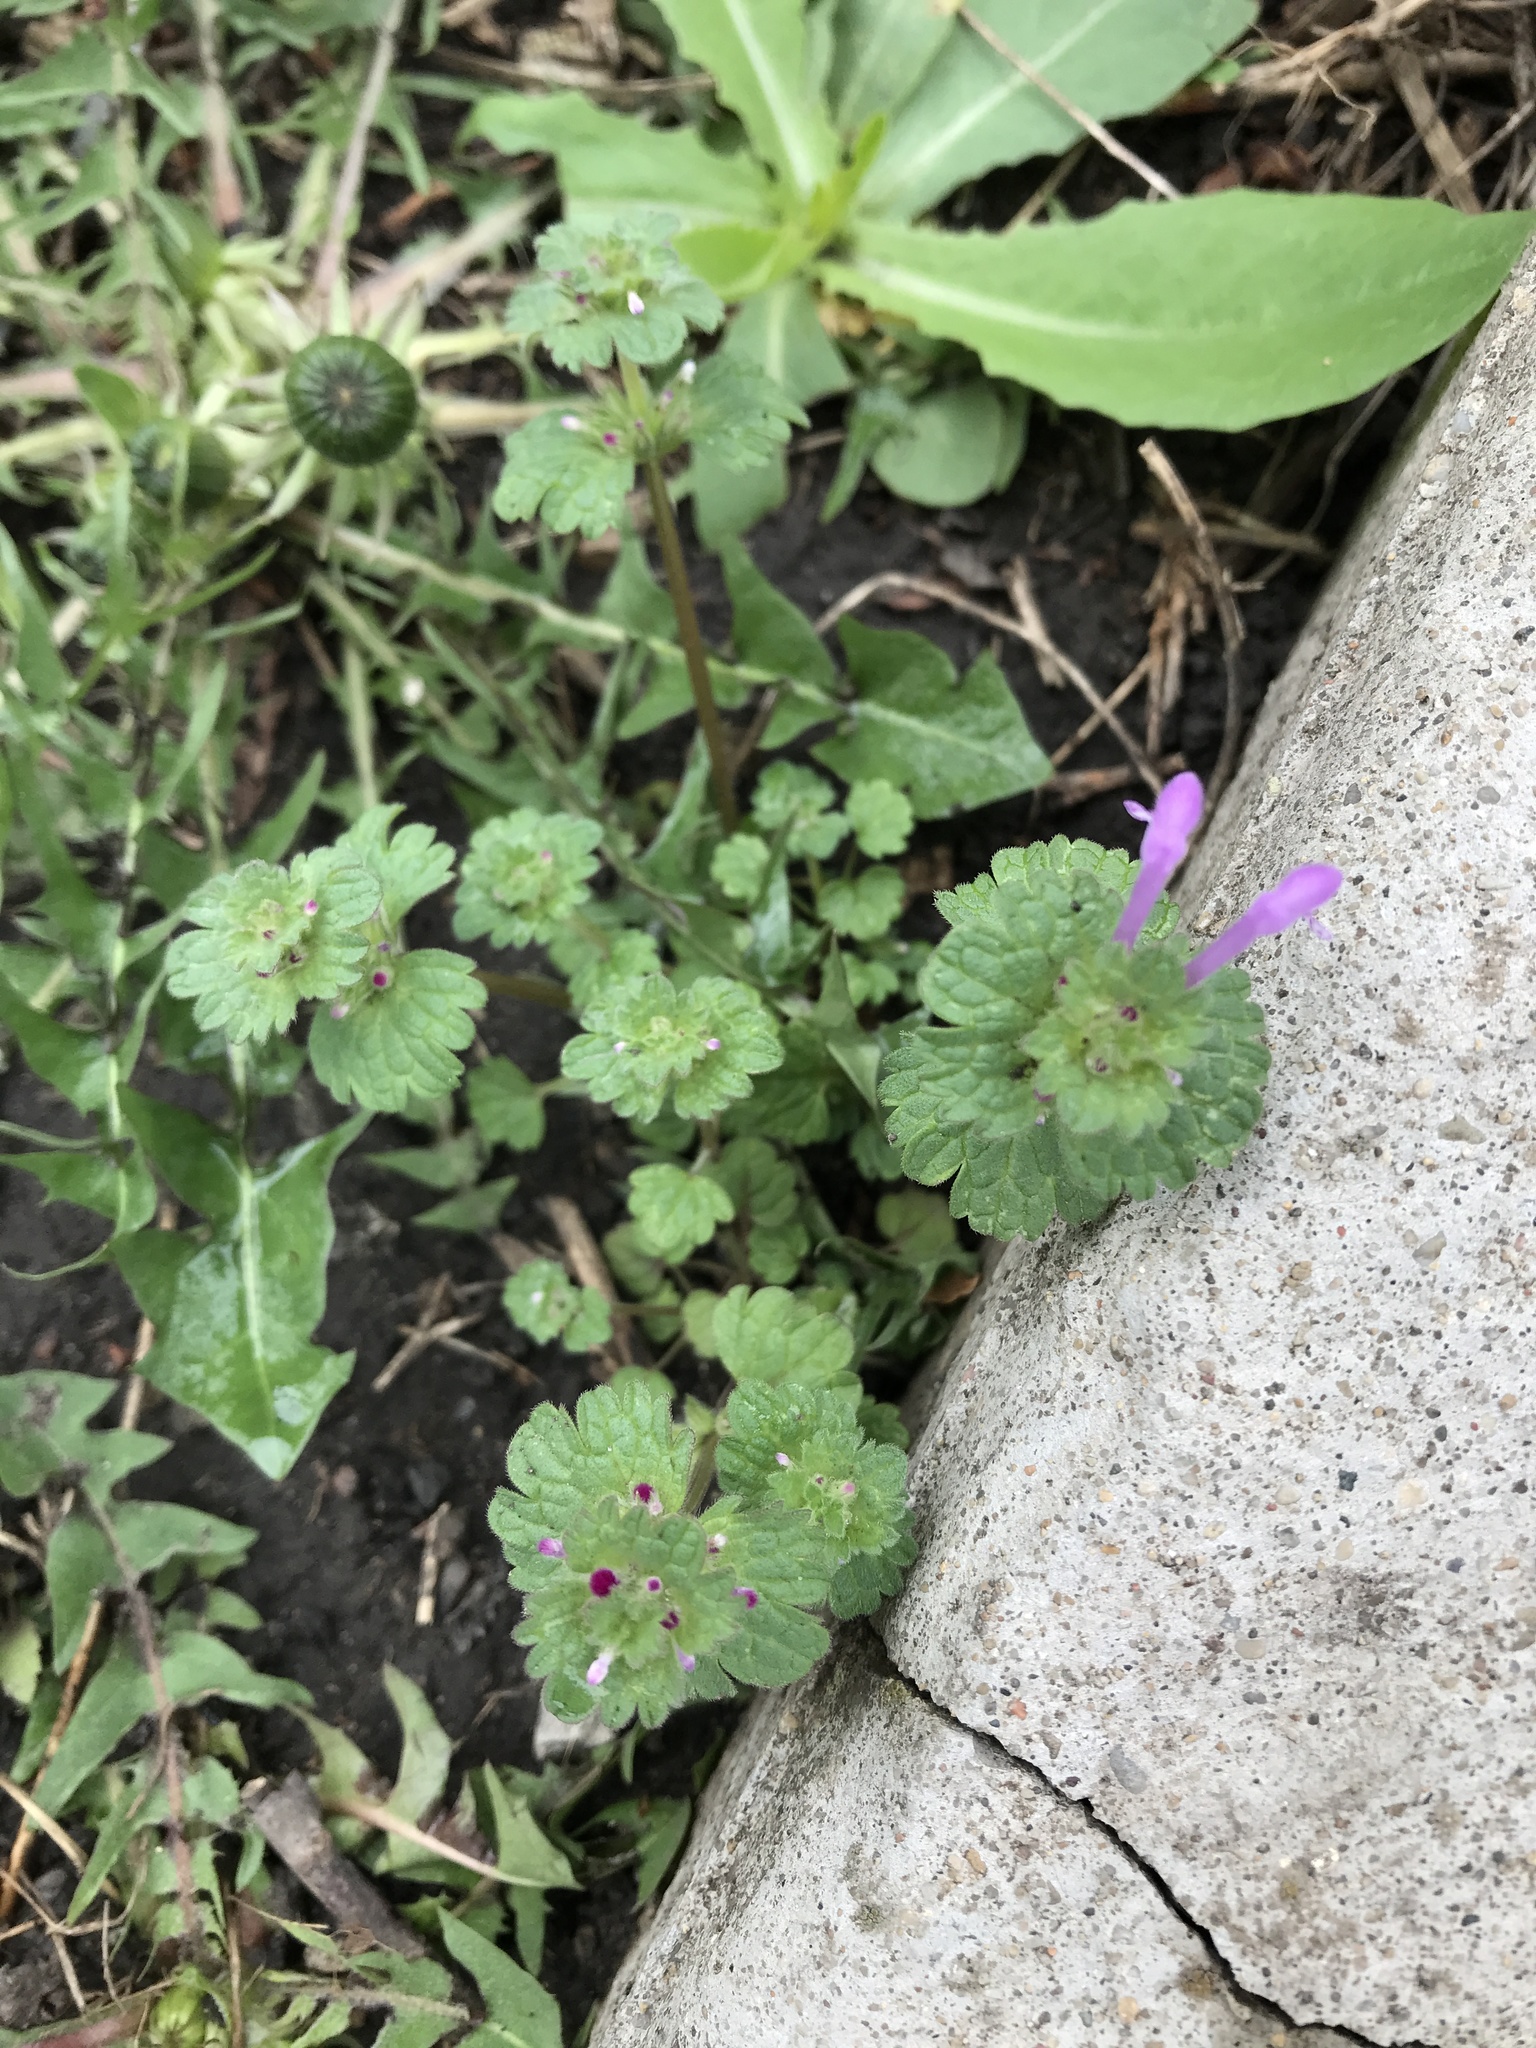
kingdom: Plantae
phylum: Tracheophyta
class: Magnoliopsida
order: Lamiales
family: Lamiaceae
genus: Lamium
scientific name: Lamium amplexicaule
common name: Henbit dead-nettle
